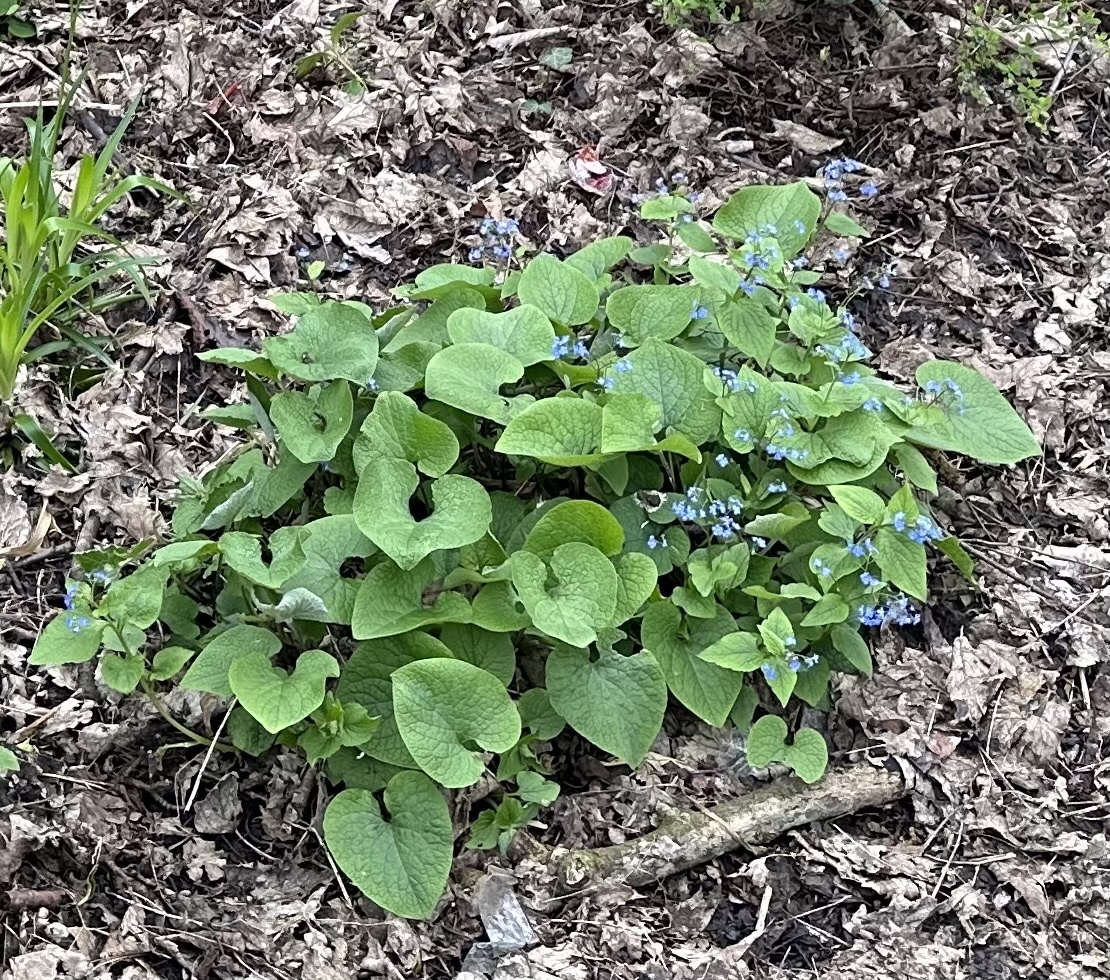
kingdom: Plantae
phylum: Tracheophyta
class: Magnoliopsida
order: Boraginales
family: Boraginaceae
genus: Brunnera
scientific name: Brunnera macrophylla
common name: Great forget-me-not
